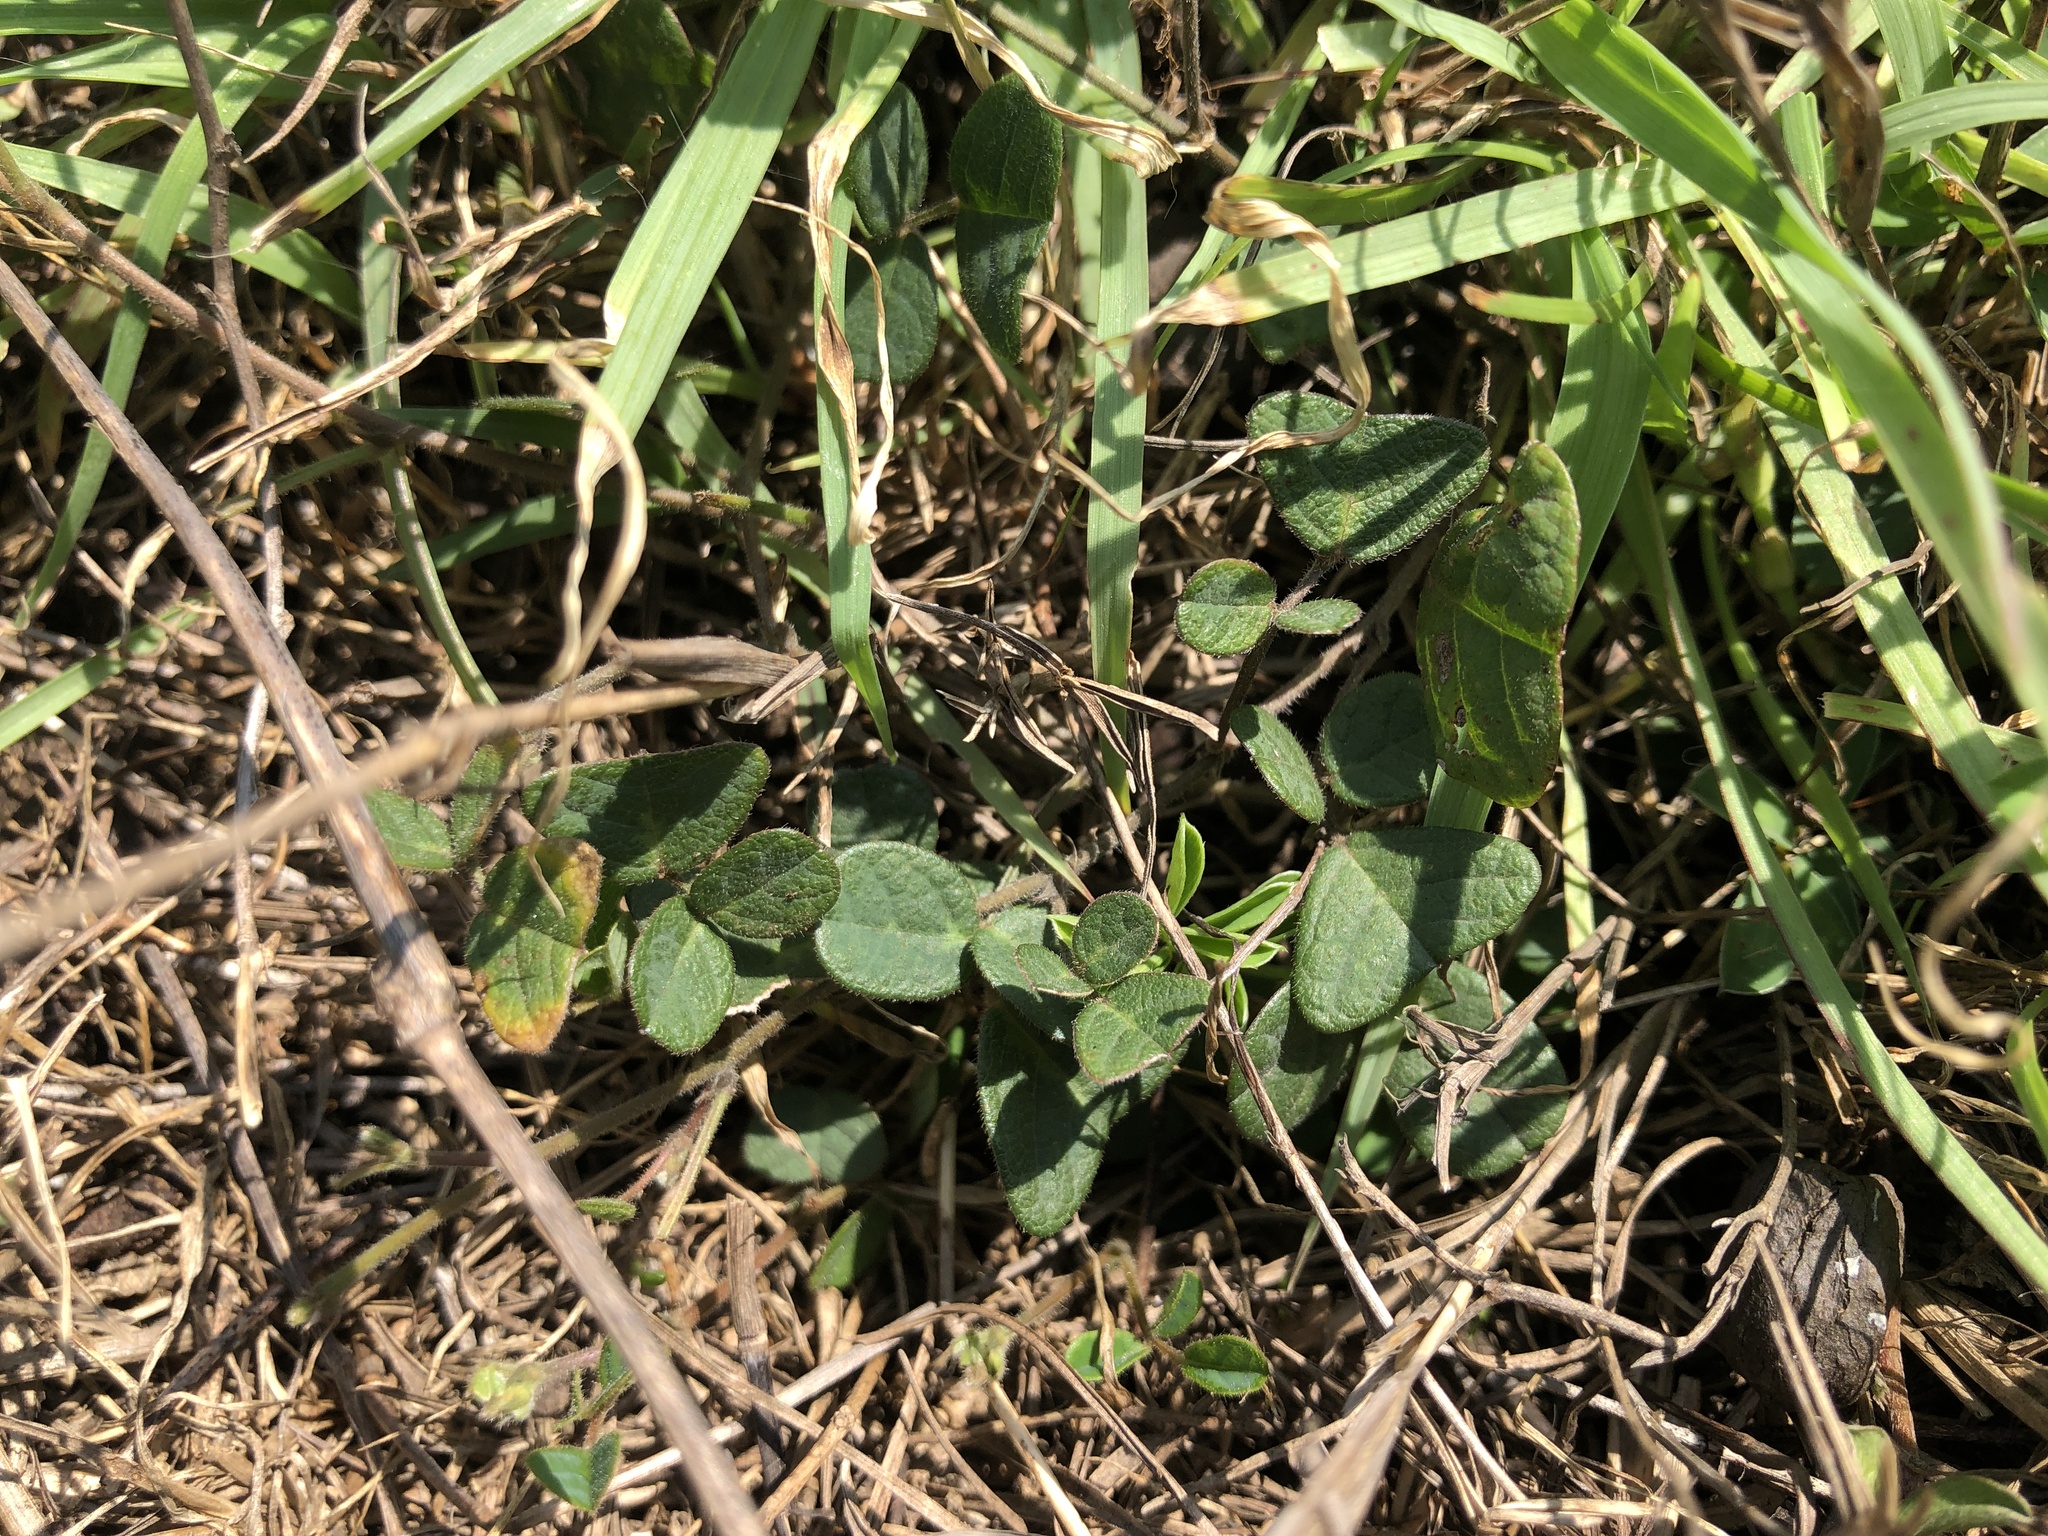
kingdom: Plantae
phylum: Tracheophyta
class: Magnoliopsida
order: Fabales
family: Fabaceae
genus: Christia
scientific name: Christia obcordata
